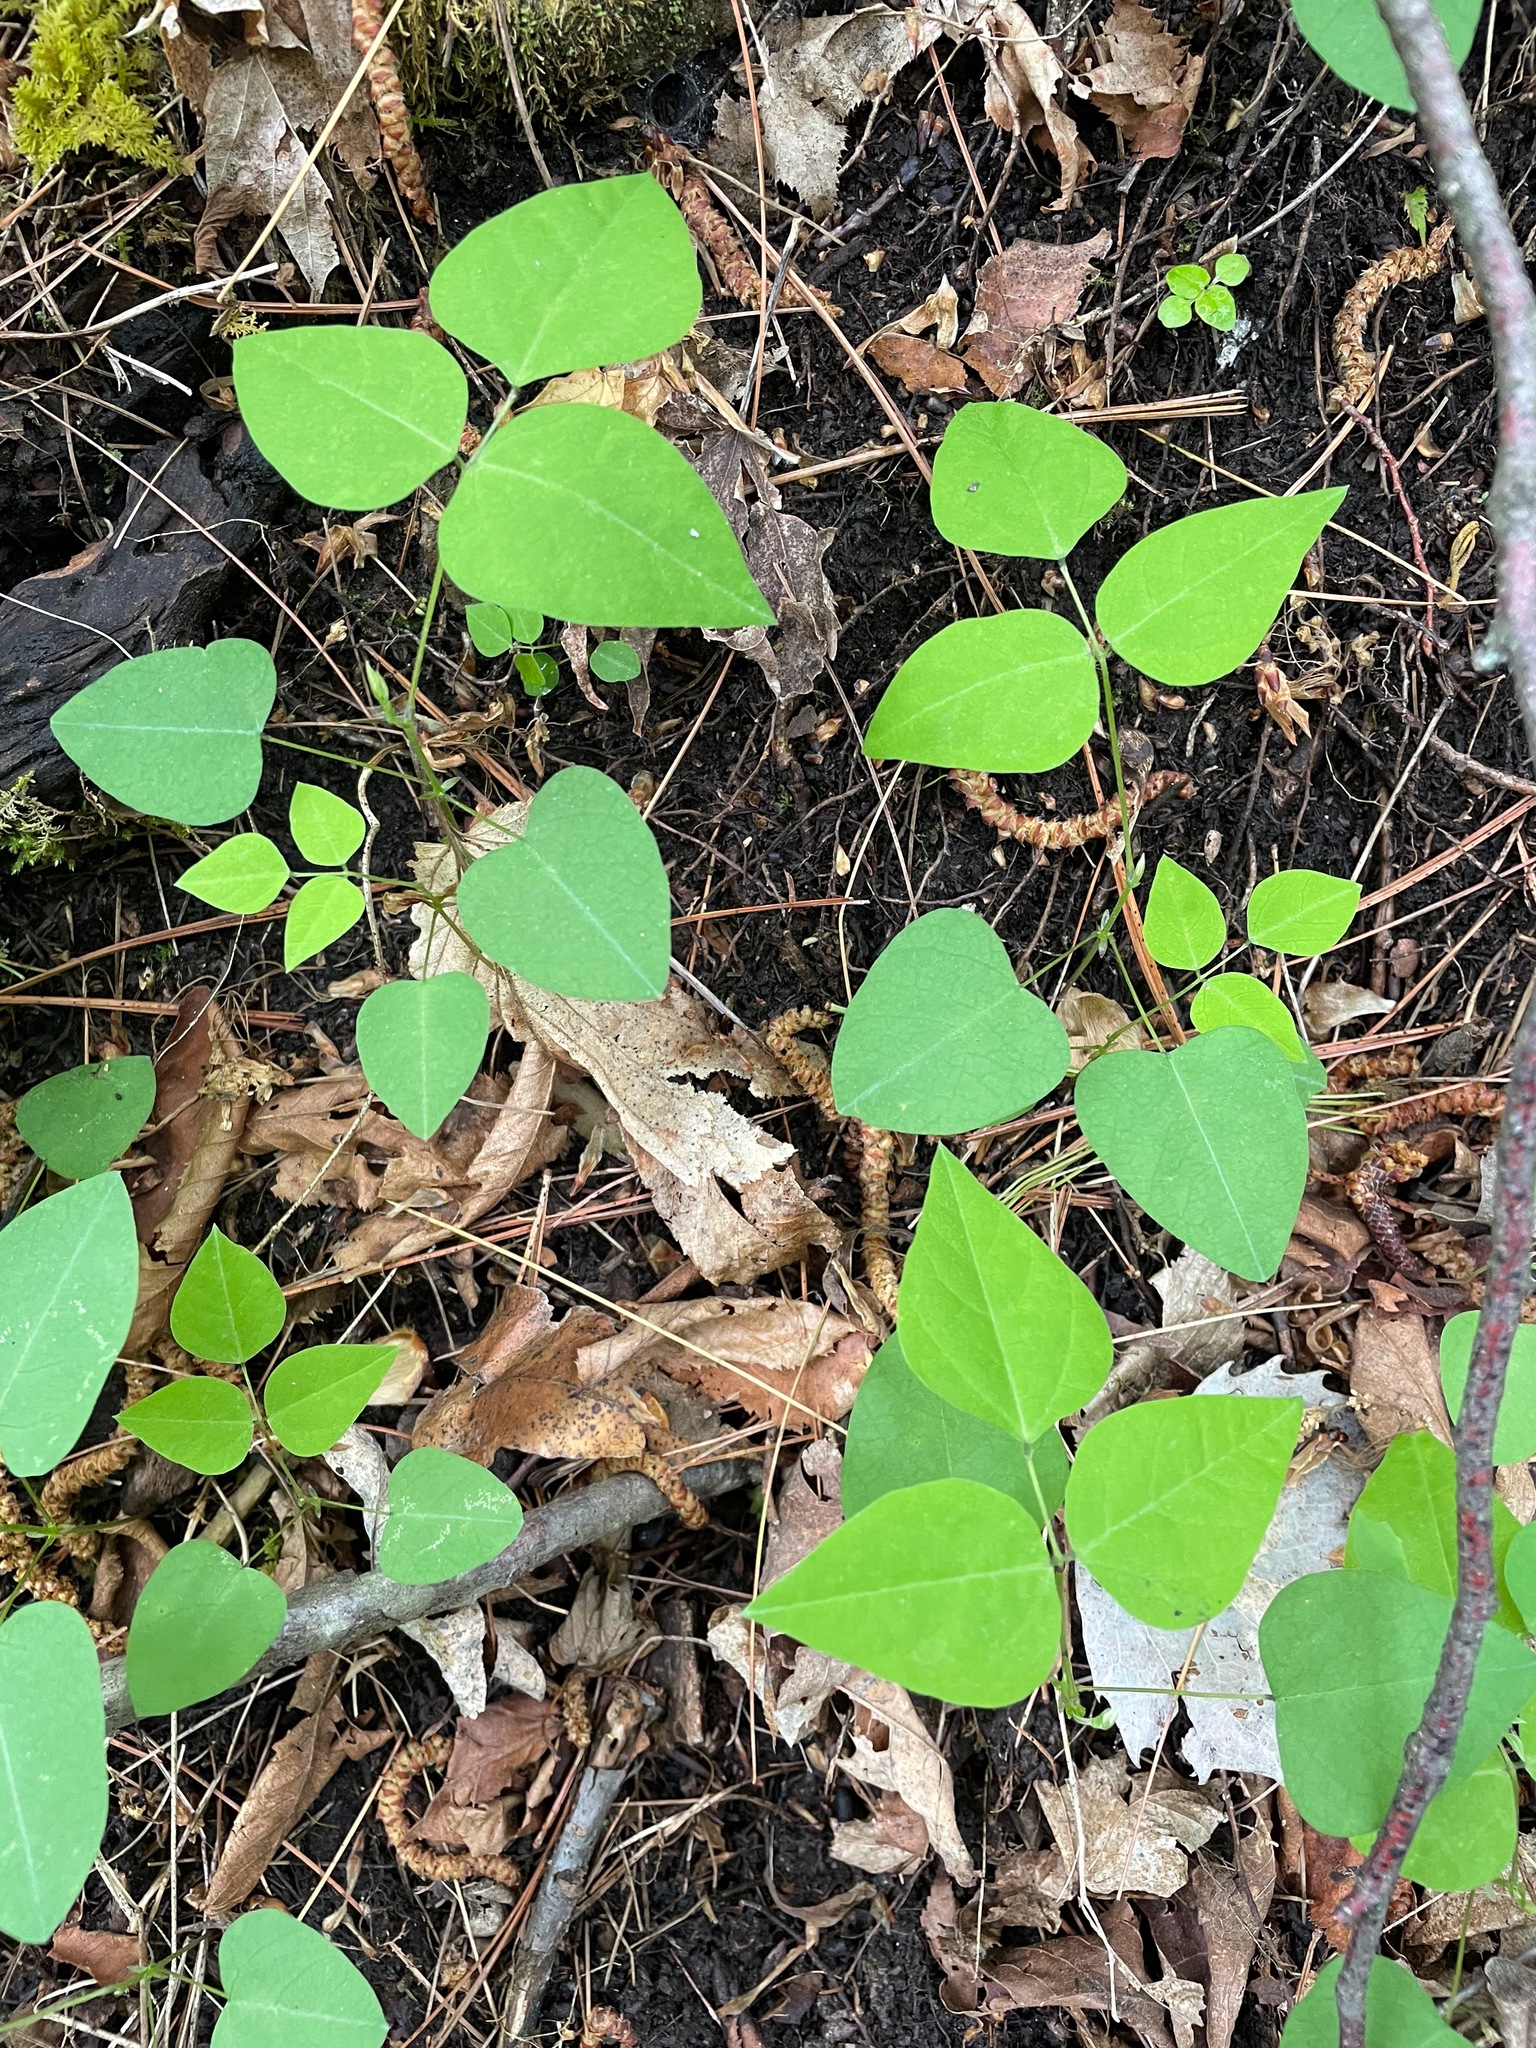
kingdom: Plantae
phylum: Tracheophyta
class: Magnoliopsida
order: Fabales
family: Fabaceae
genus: Amphicarpaea
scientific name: Amphicarpaea bracteata
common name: American hog peanut
